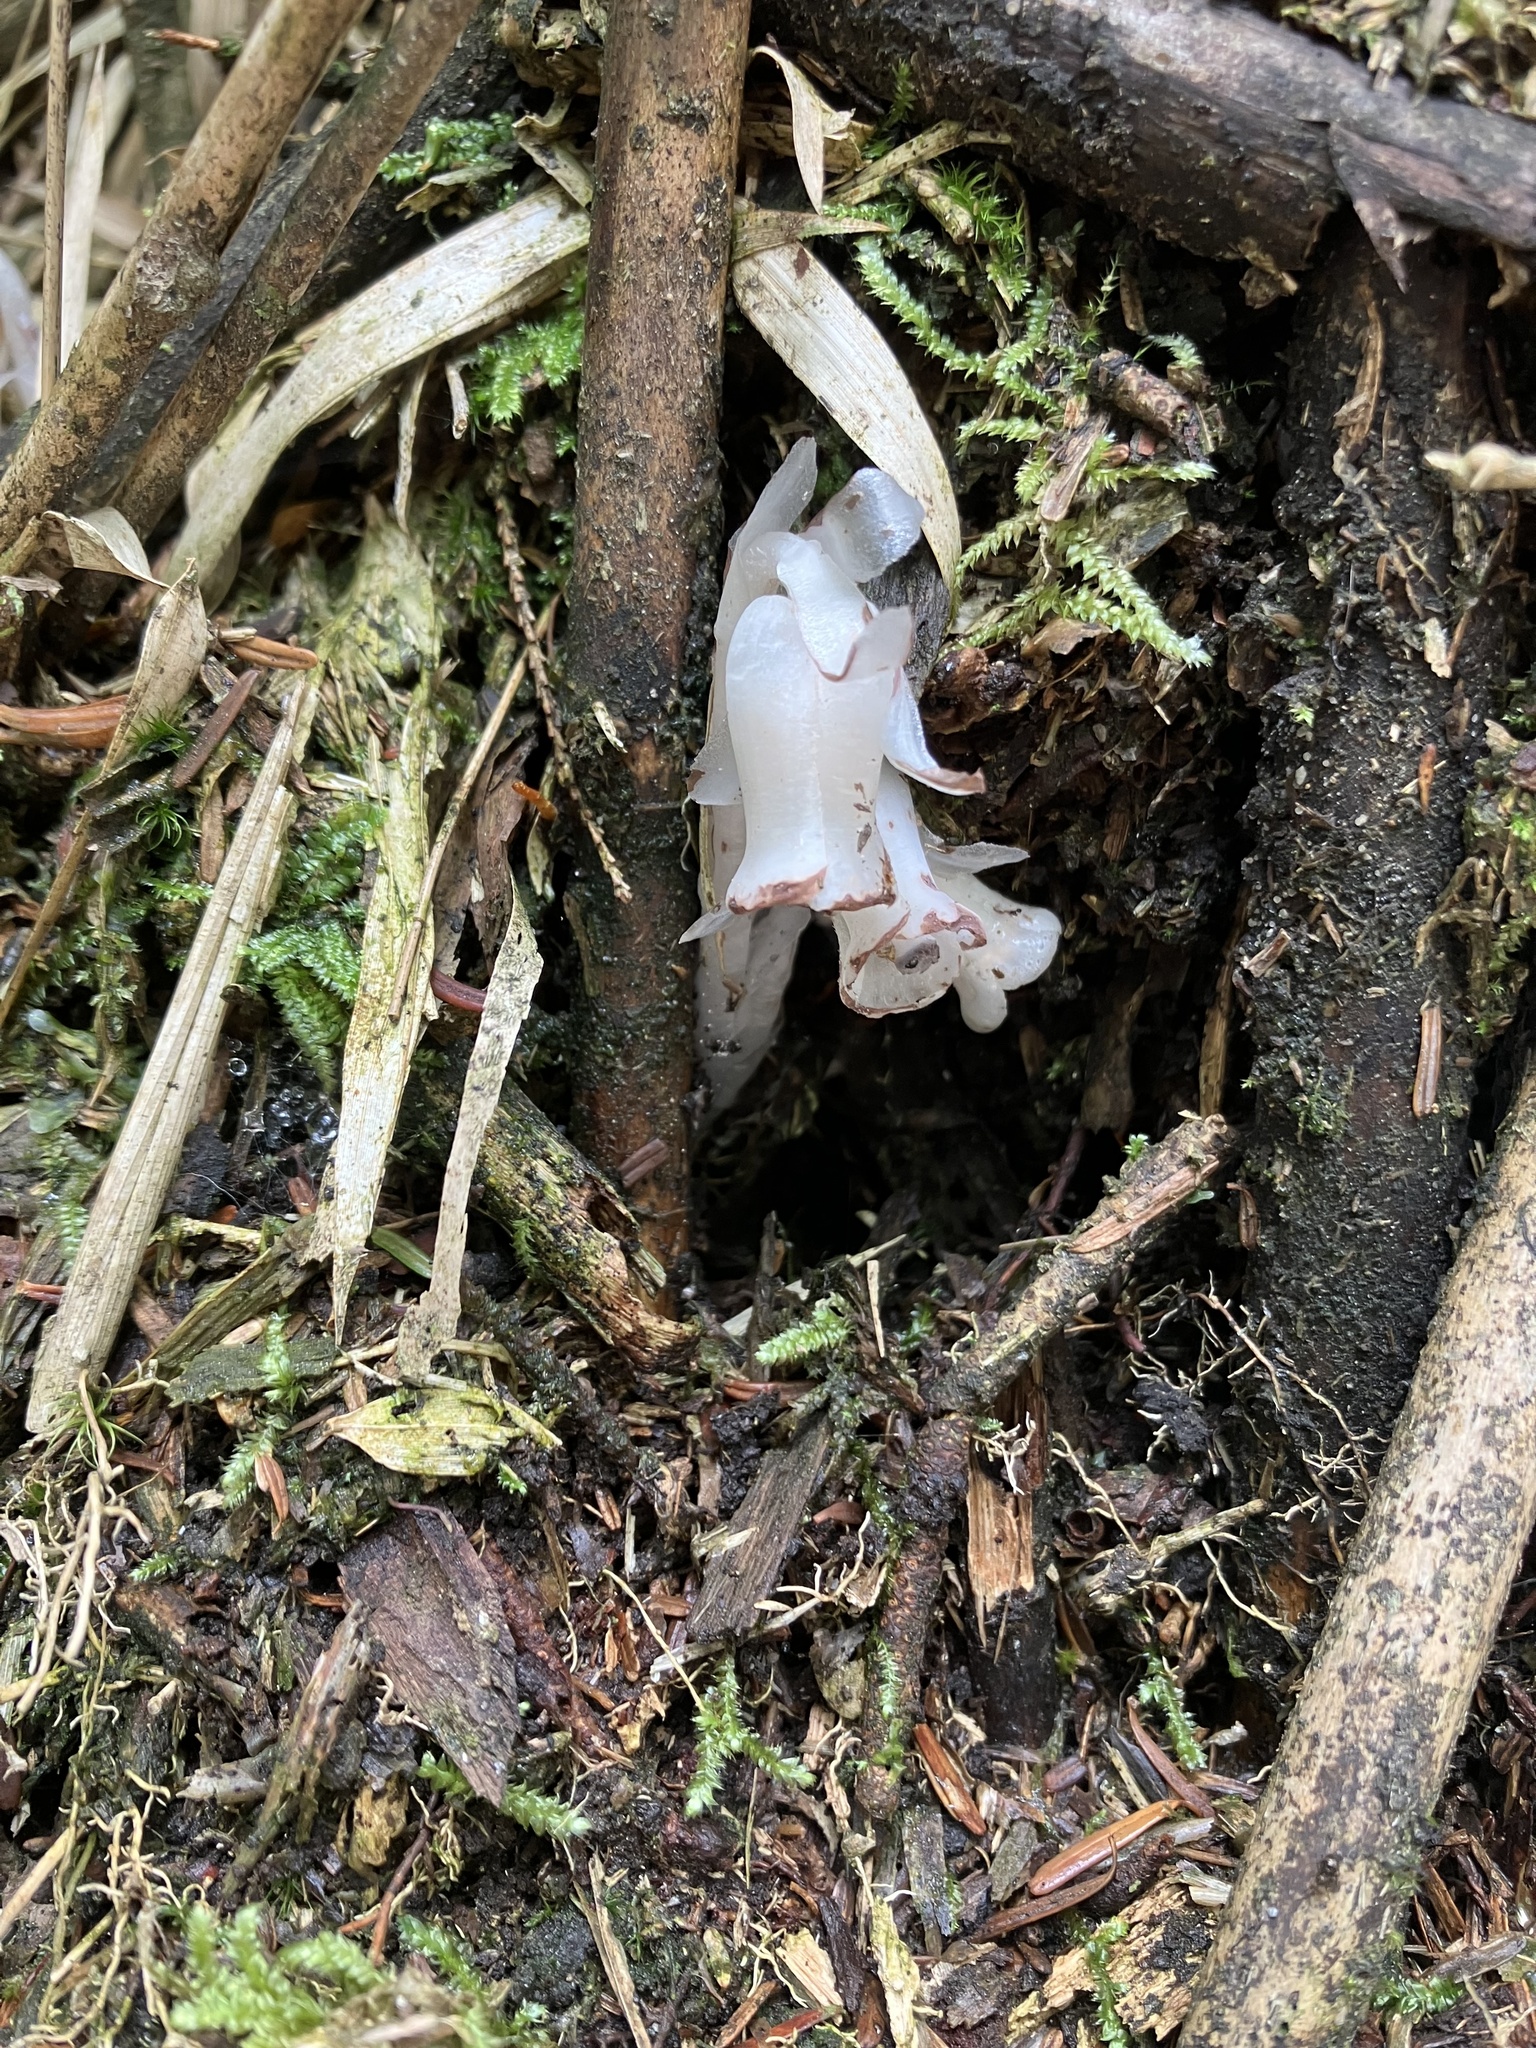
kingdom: Plantae
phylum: Tracheophyta
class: Magnoliopsida
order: Ericales
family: Ericaceae
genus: Monotropastrum
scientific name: Monotropastrum humile
